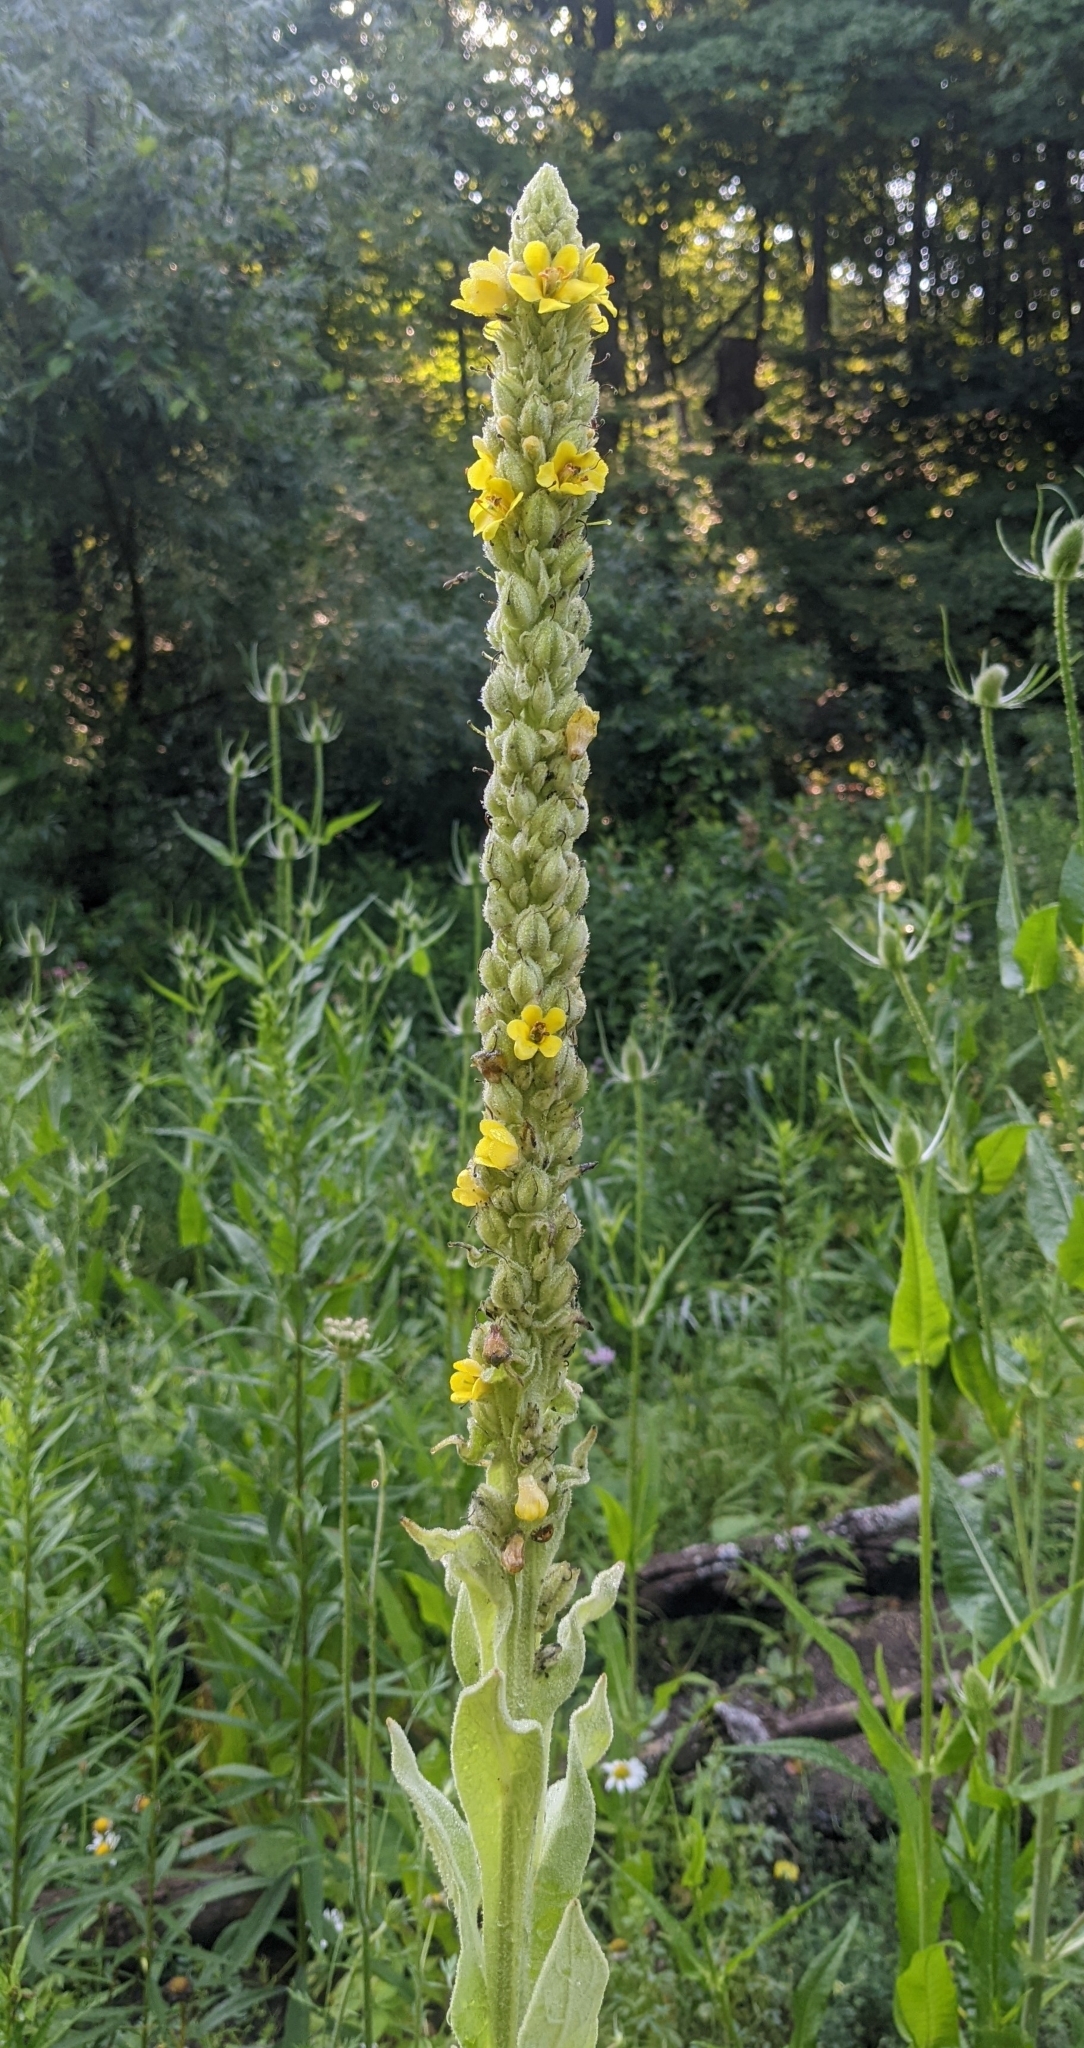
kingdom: Plantae
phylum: Tracheophyta
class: Magnoliopsida
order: Lamiales
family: Scrophulariaceae
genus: Verbascum
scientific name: Verbascum thapsus
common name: Common mullein
